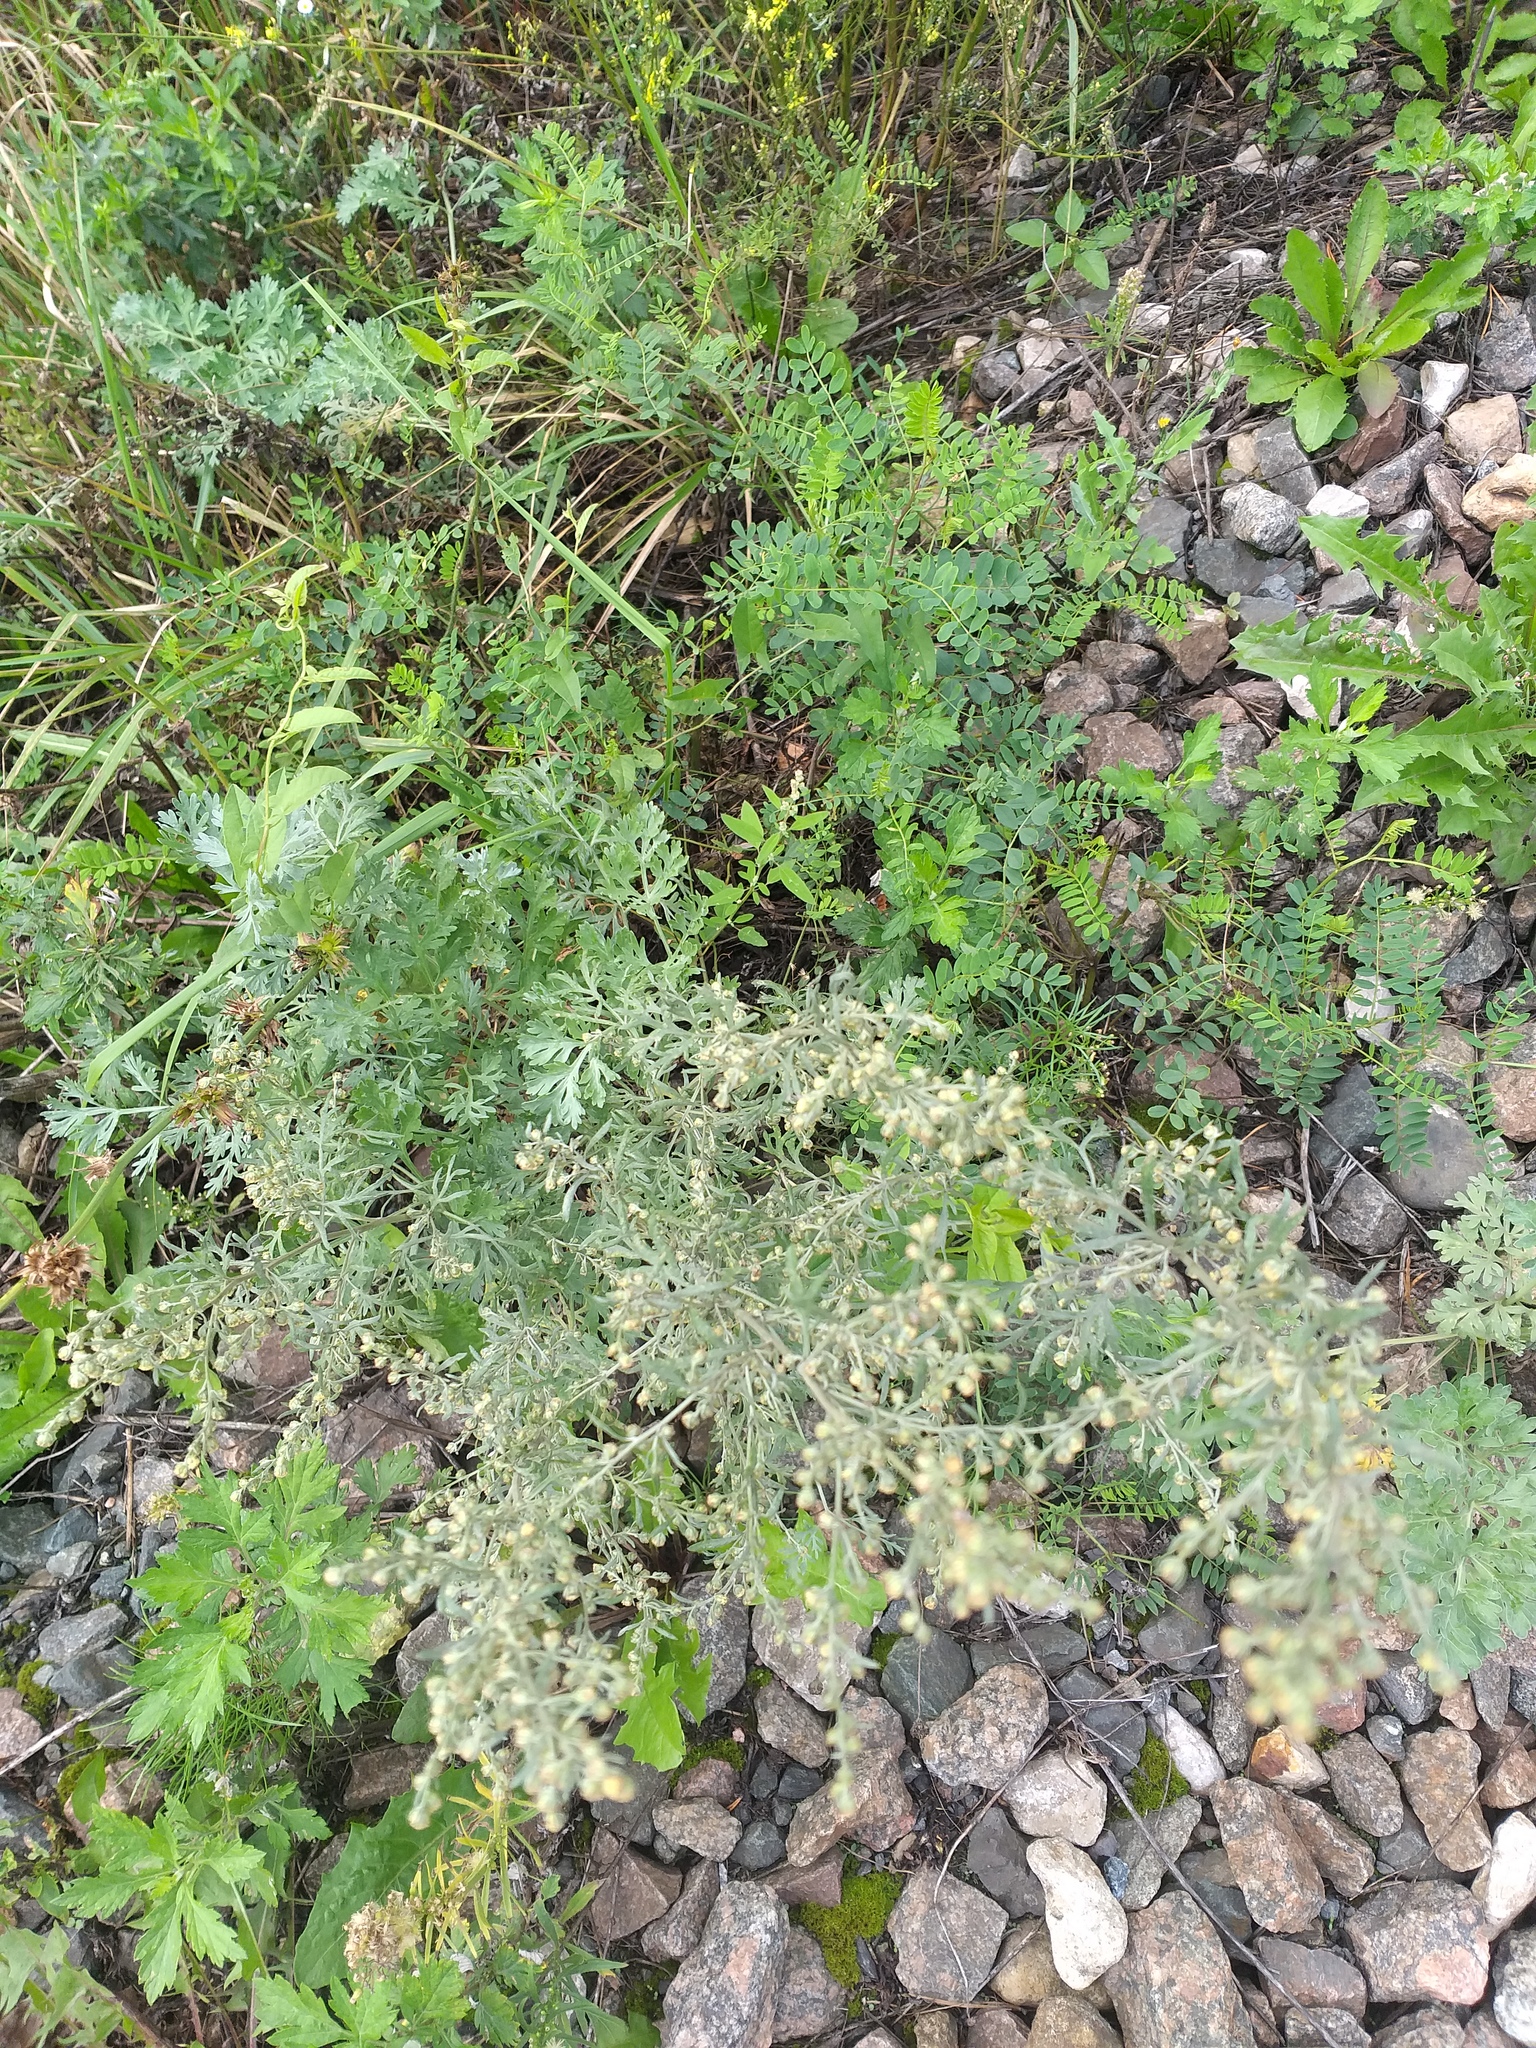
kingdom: Plantae
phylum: Tracheophyta
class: Magnoliopsida
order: Asterales
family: Asteraceae
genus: Artemisia
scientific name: Artemisia absinthium
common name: Wormwood
